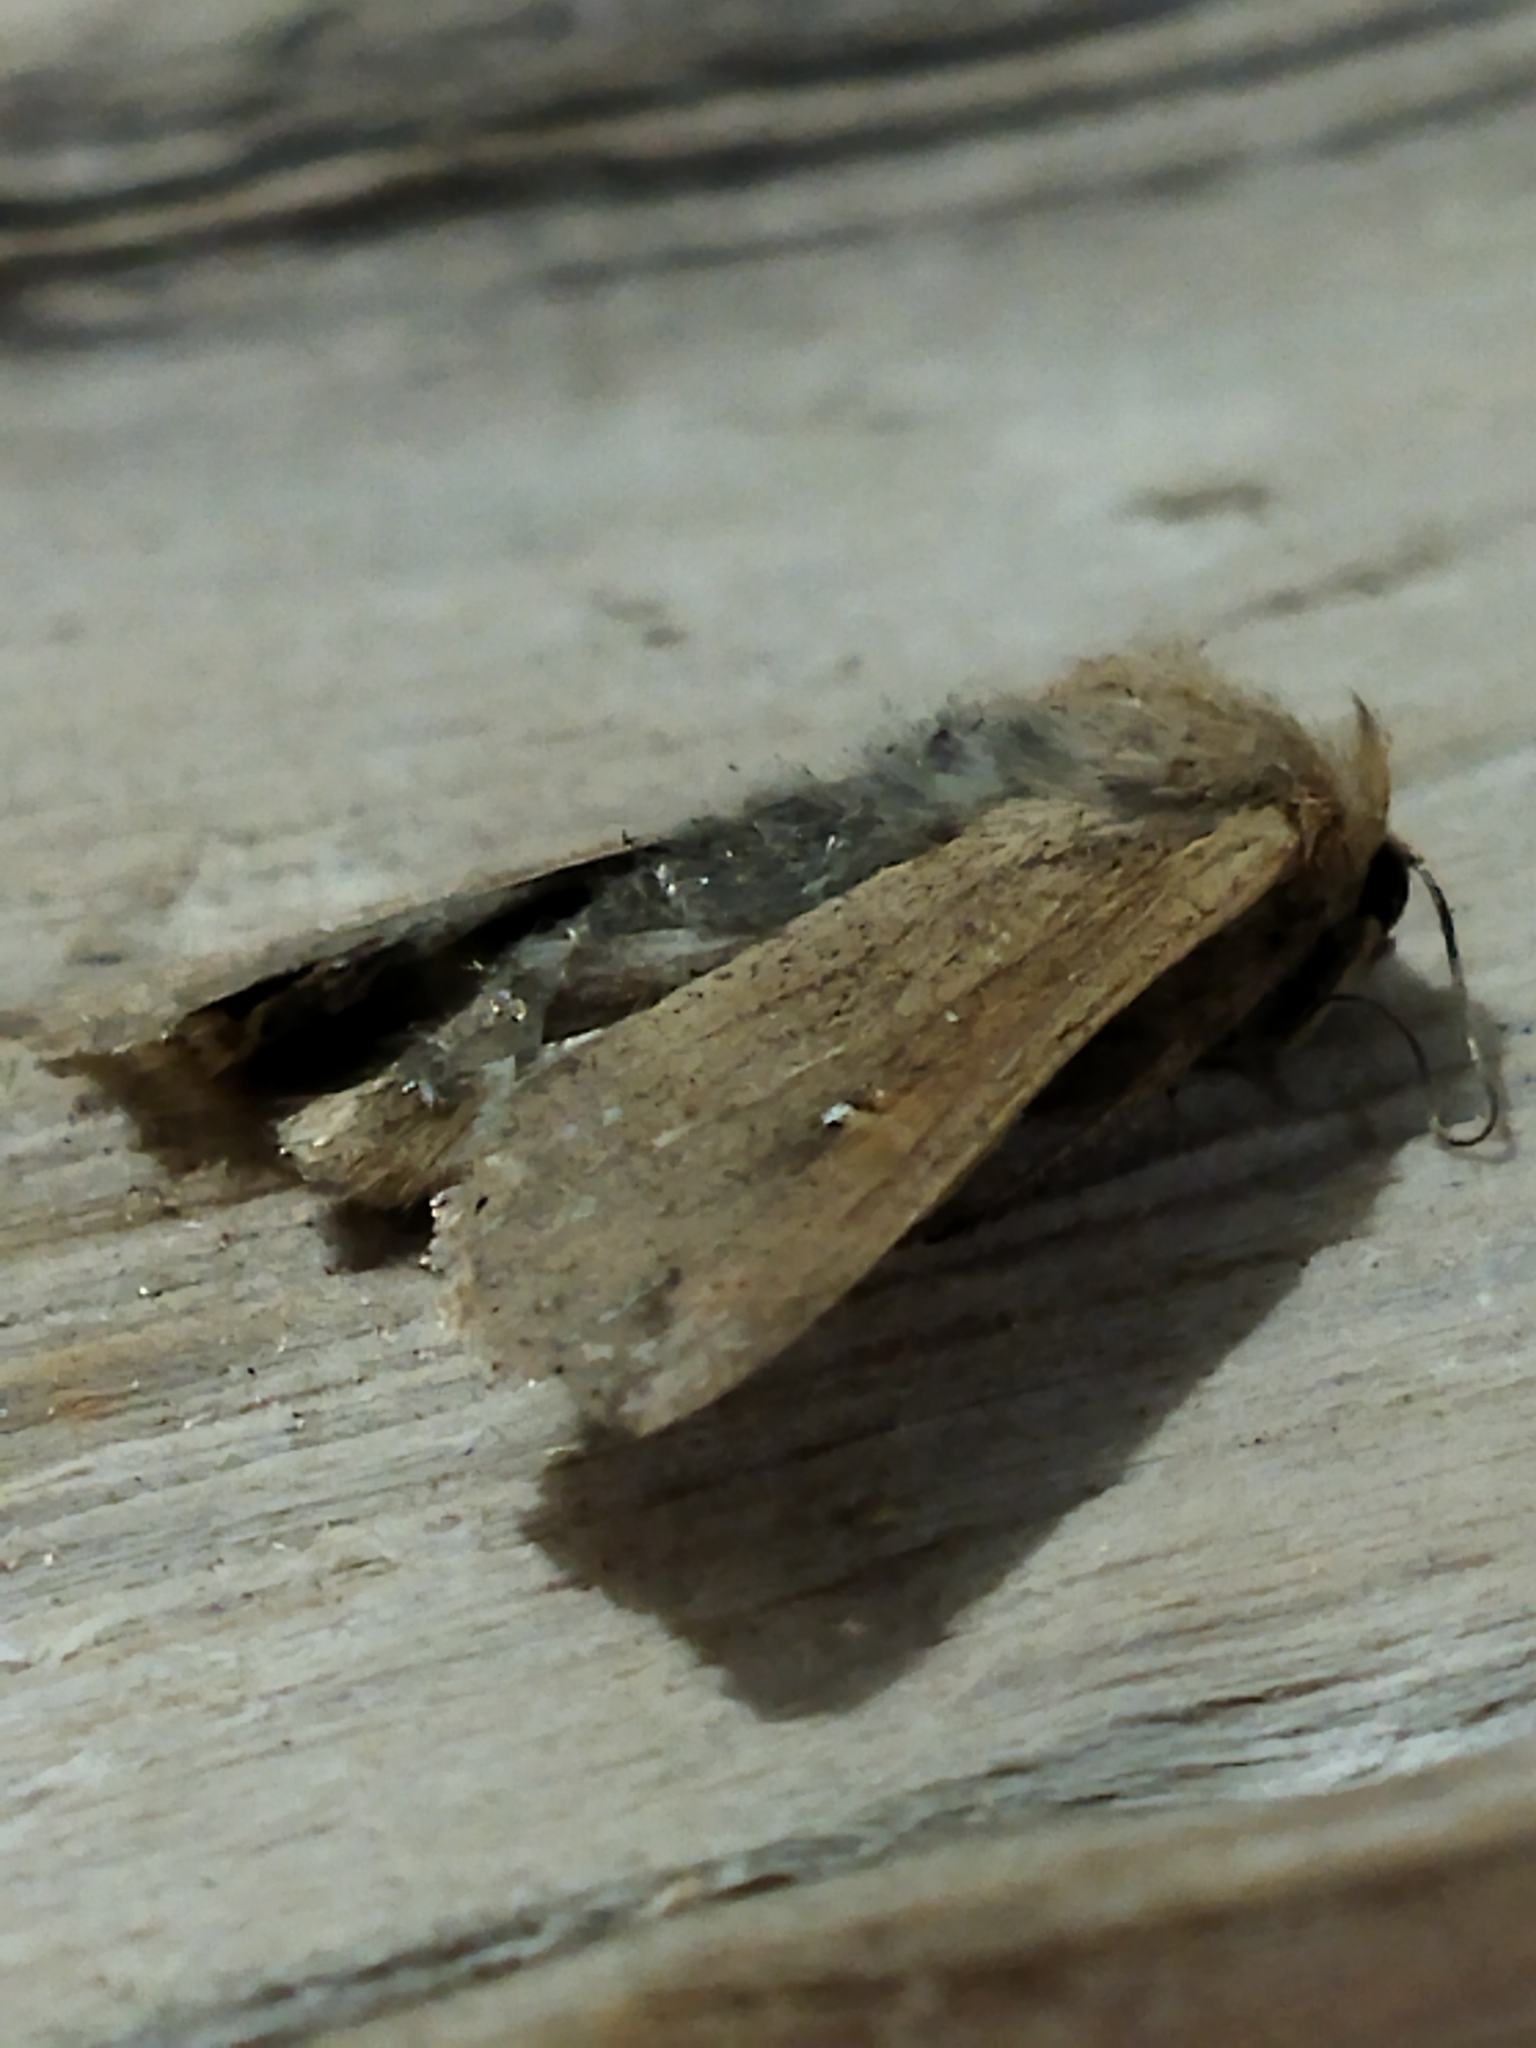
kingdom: Animalia
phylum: Arthropoda
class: Insecta
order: Lepidoptera
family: Noctuidae
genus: Mythimna
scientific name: Mythimna unipuncta
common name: White-speck
